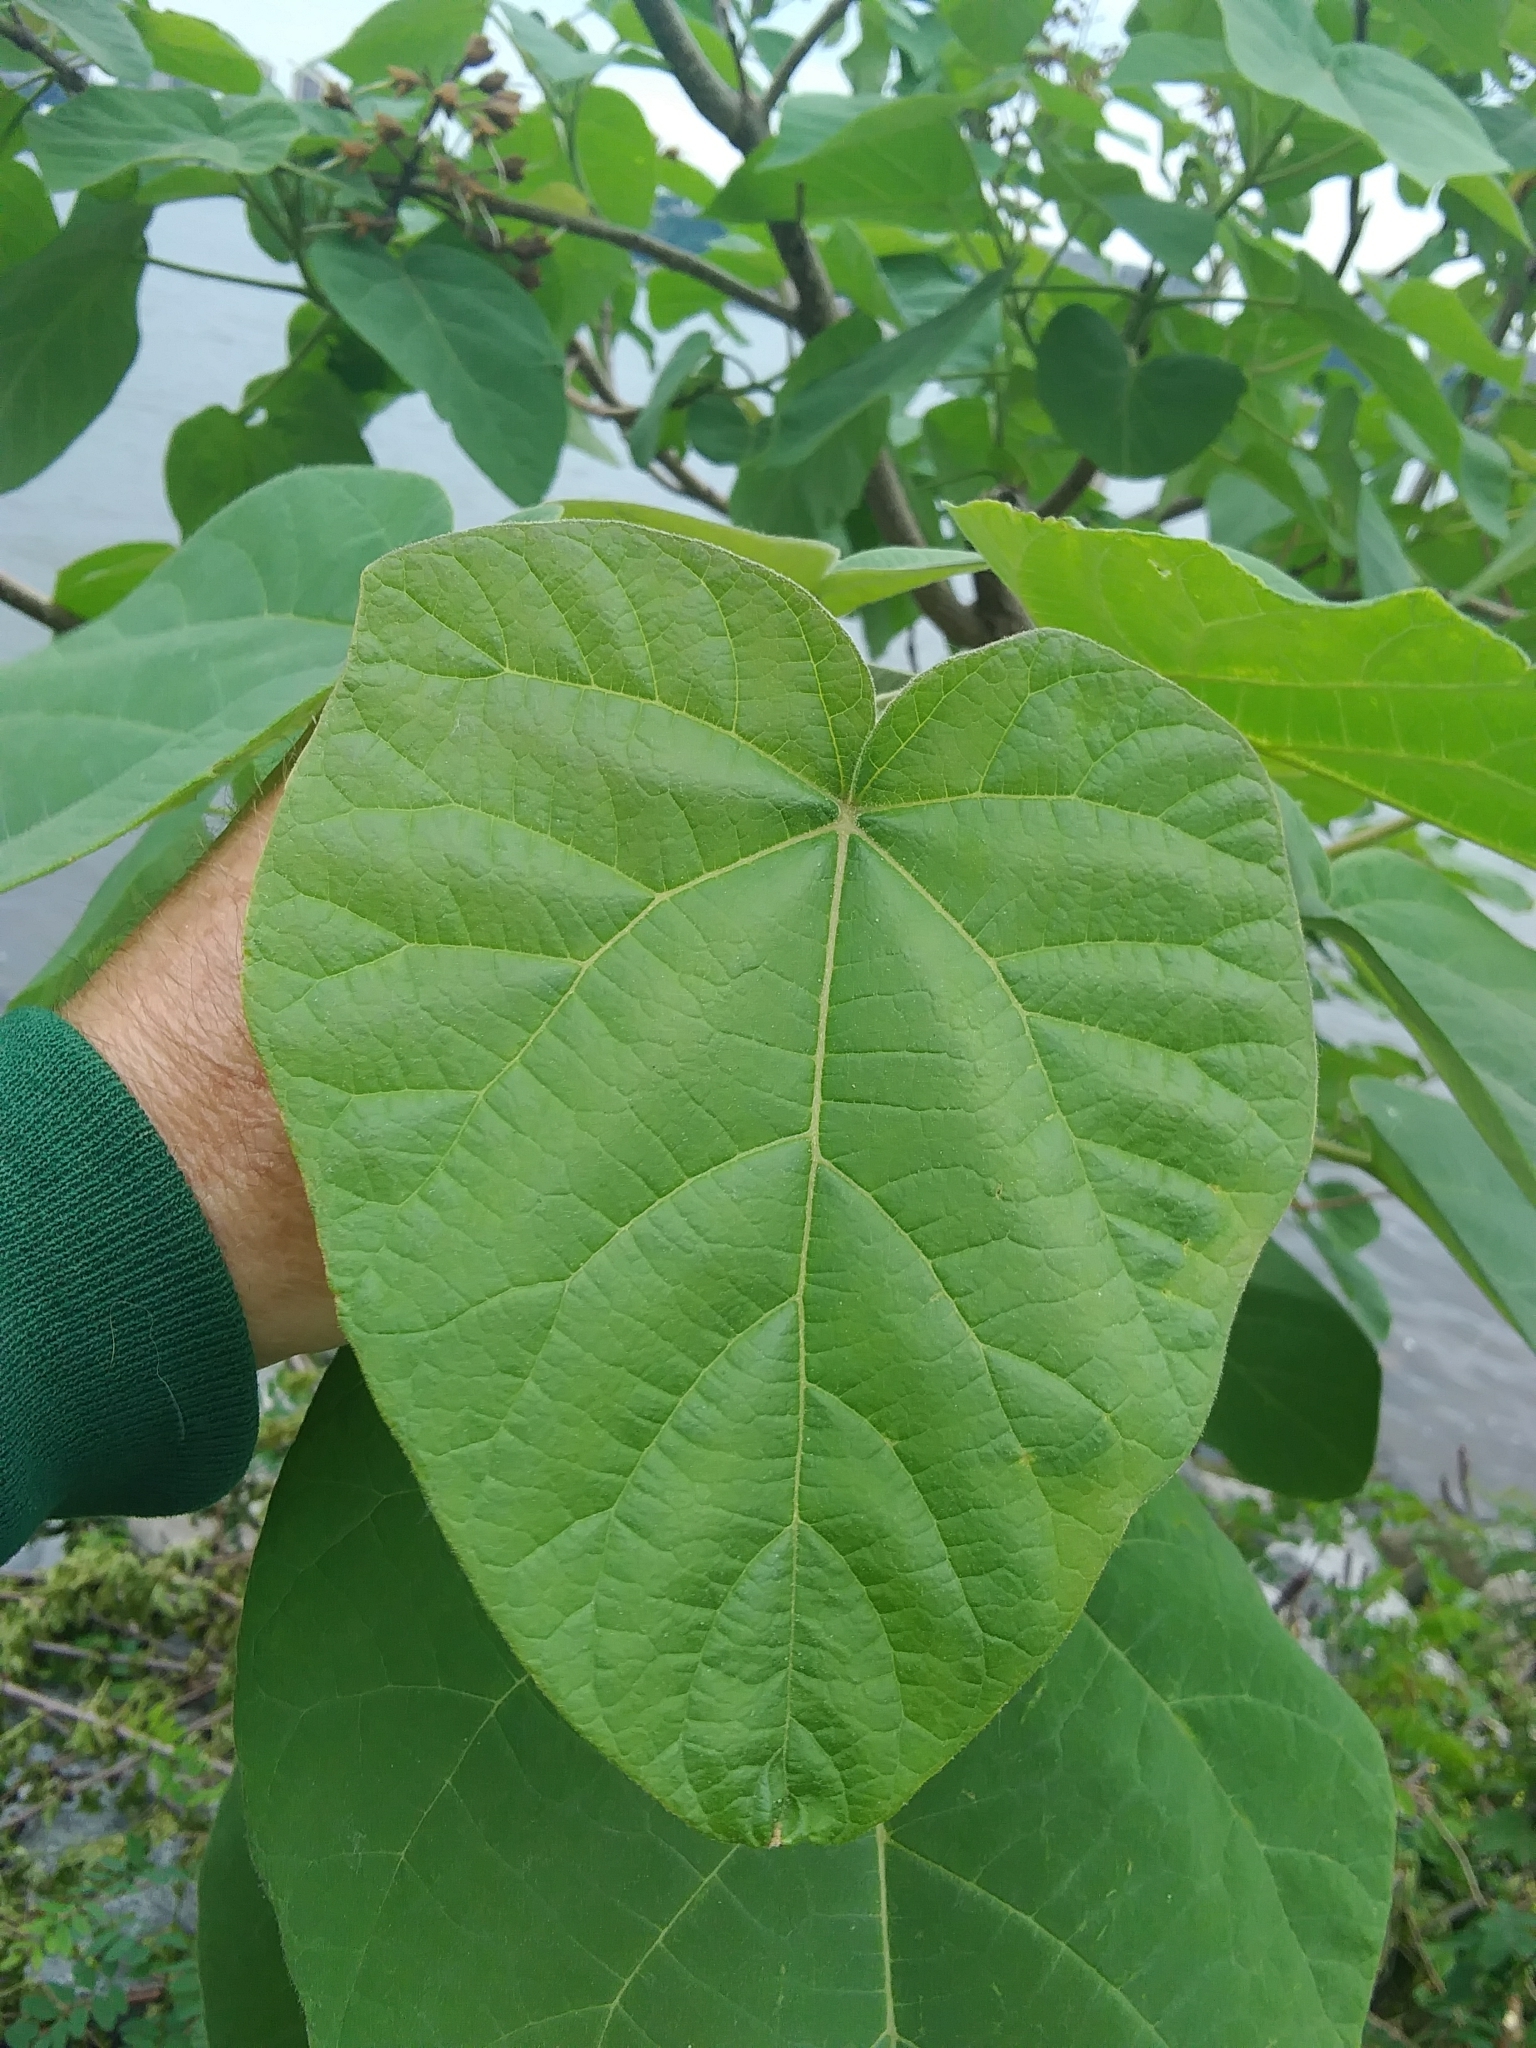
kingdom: Plantae
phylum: Tracheophyta
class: Magnoliopsida
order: Lamiales
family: Paulowniaceae
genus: Paulownia
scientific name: Paulownia tomentosa
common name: Foxglove-tree
